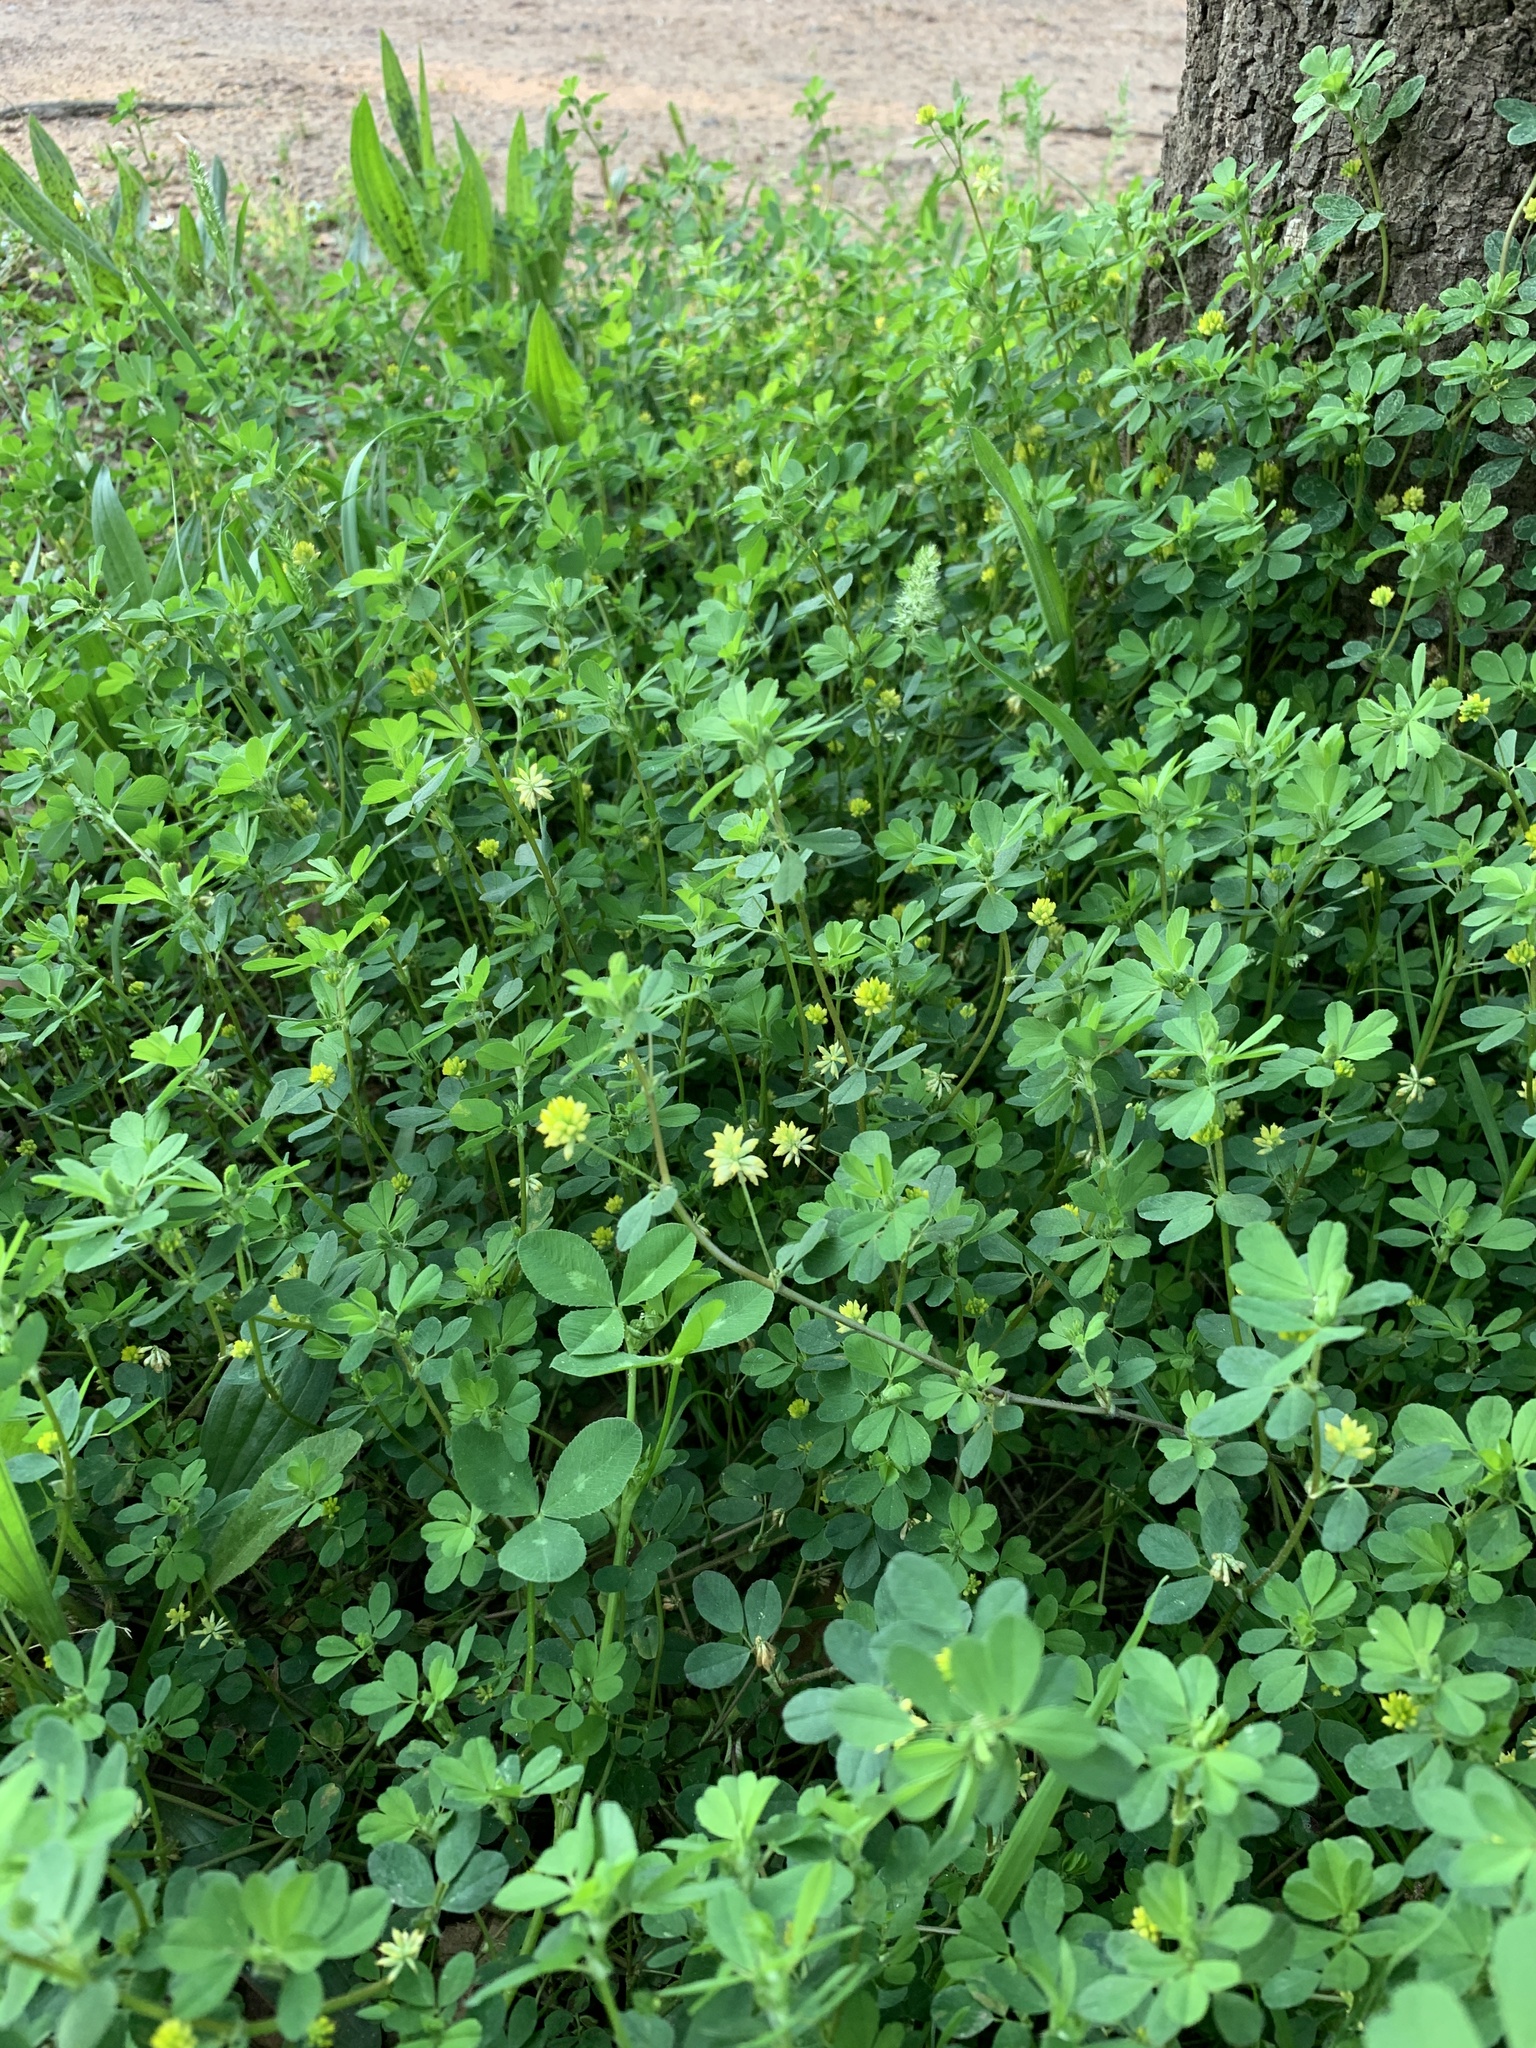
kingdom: Plantae
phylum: Tracheophyta
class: Magnoliopsida
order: Fabales
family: Fabaceae
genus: Trifolium
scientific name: Trifolium dubium
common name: Suckling clover
